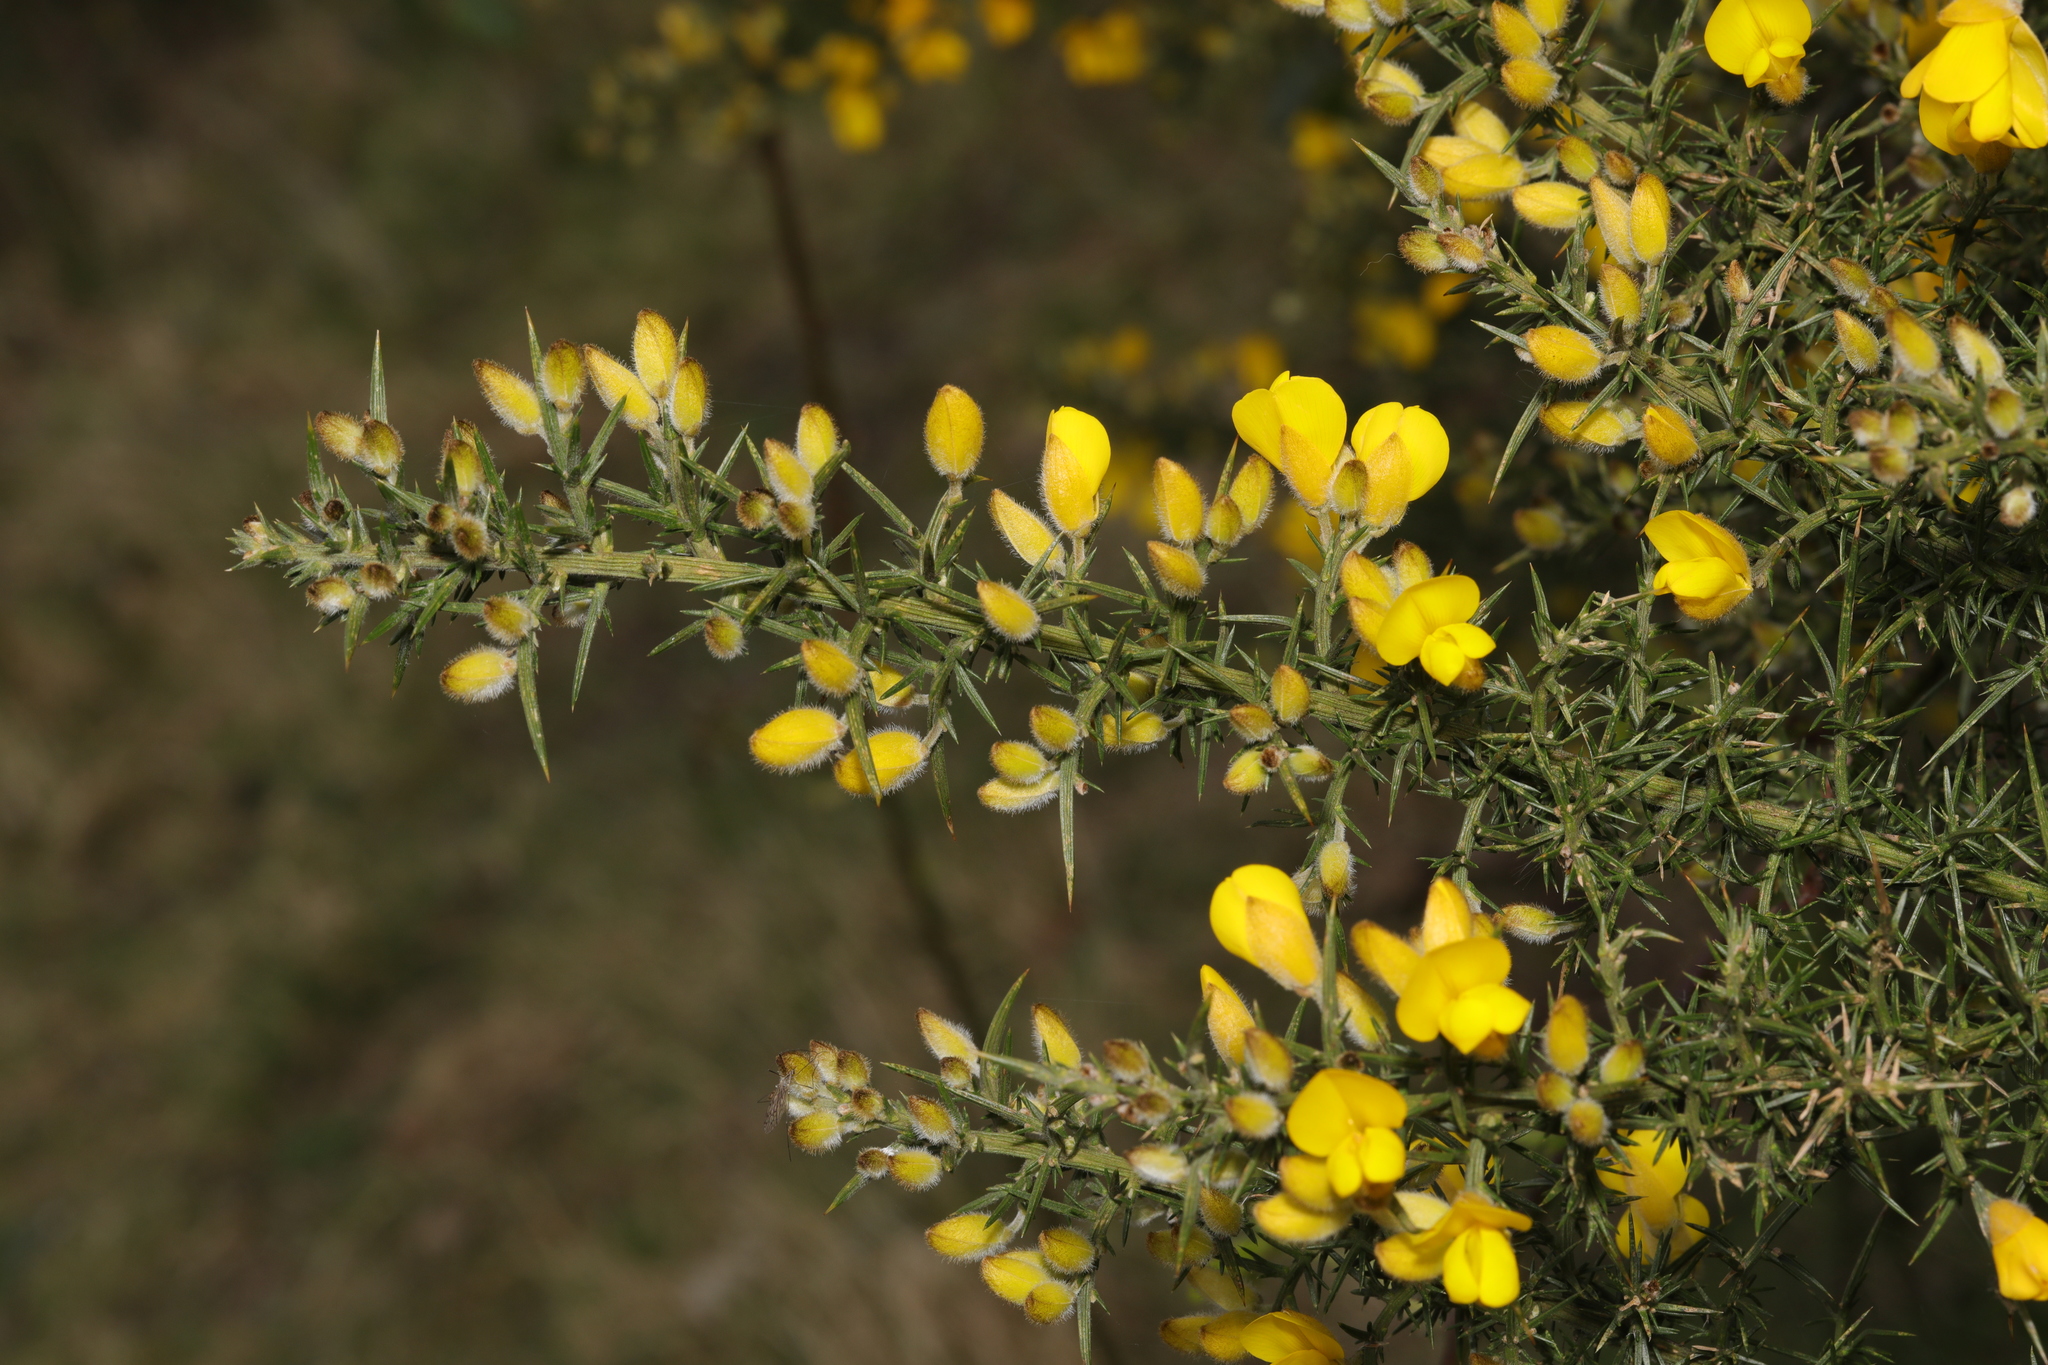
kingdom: Plantae
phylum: Tracheophyta
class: Magnoliopsida
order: Fabales
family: Fabaceae
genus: Ulex
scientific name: Ulex europaeus
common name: Common gorse
